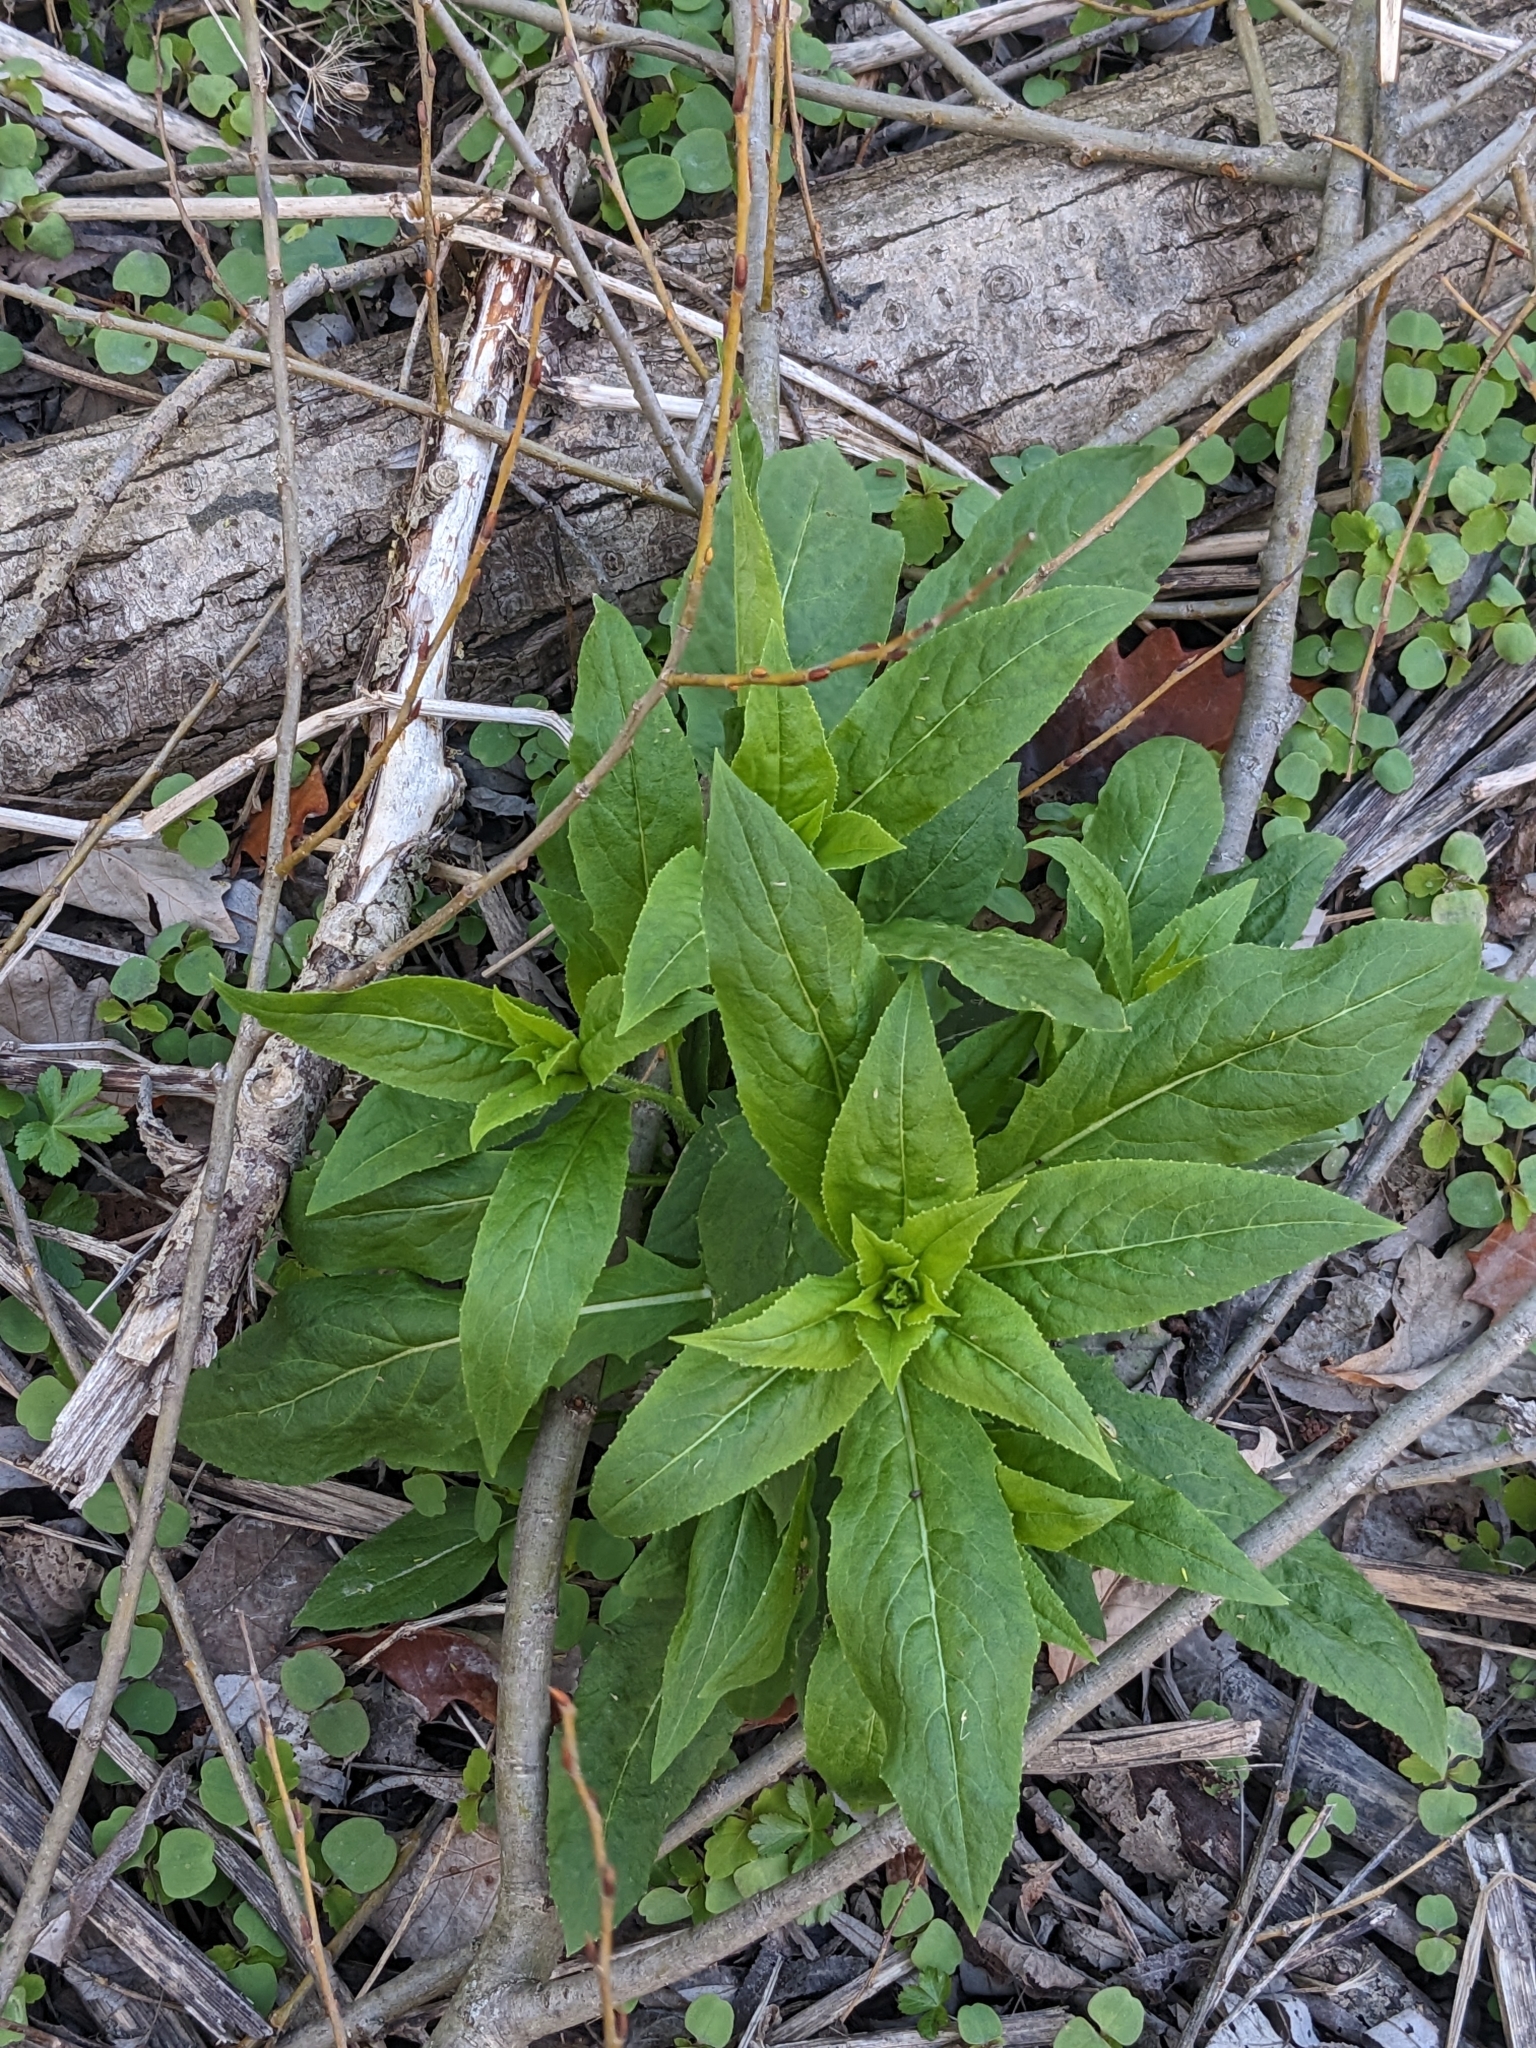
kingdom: Plantae
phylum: Tracheophyta
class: Magnoliopsida
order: Brassicales
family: Brassicaceae
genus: Hesperis
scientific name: Hesperis matronalis
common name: Dame's-violet
